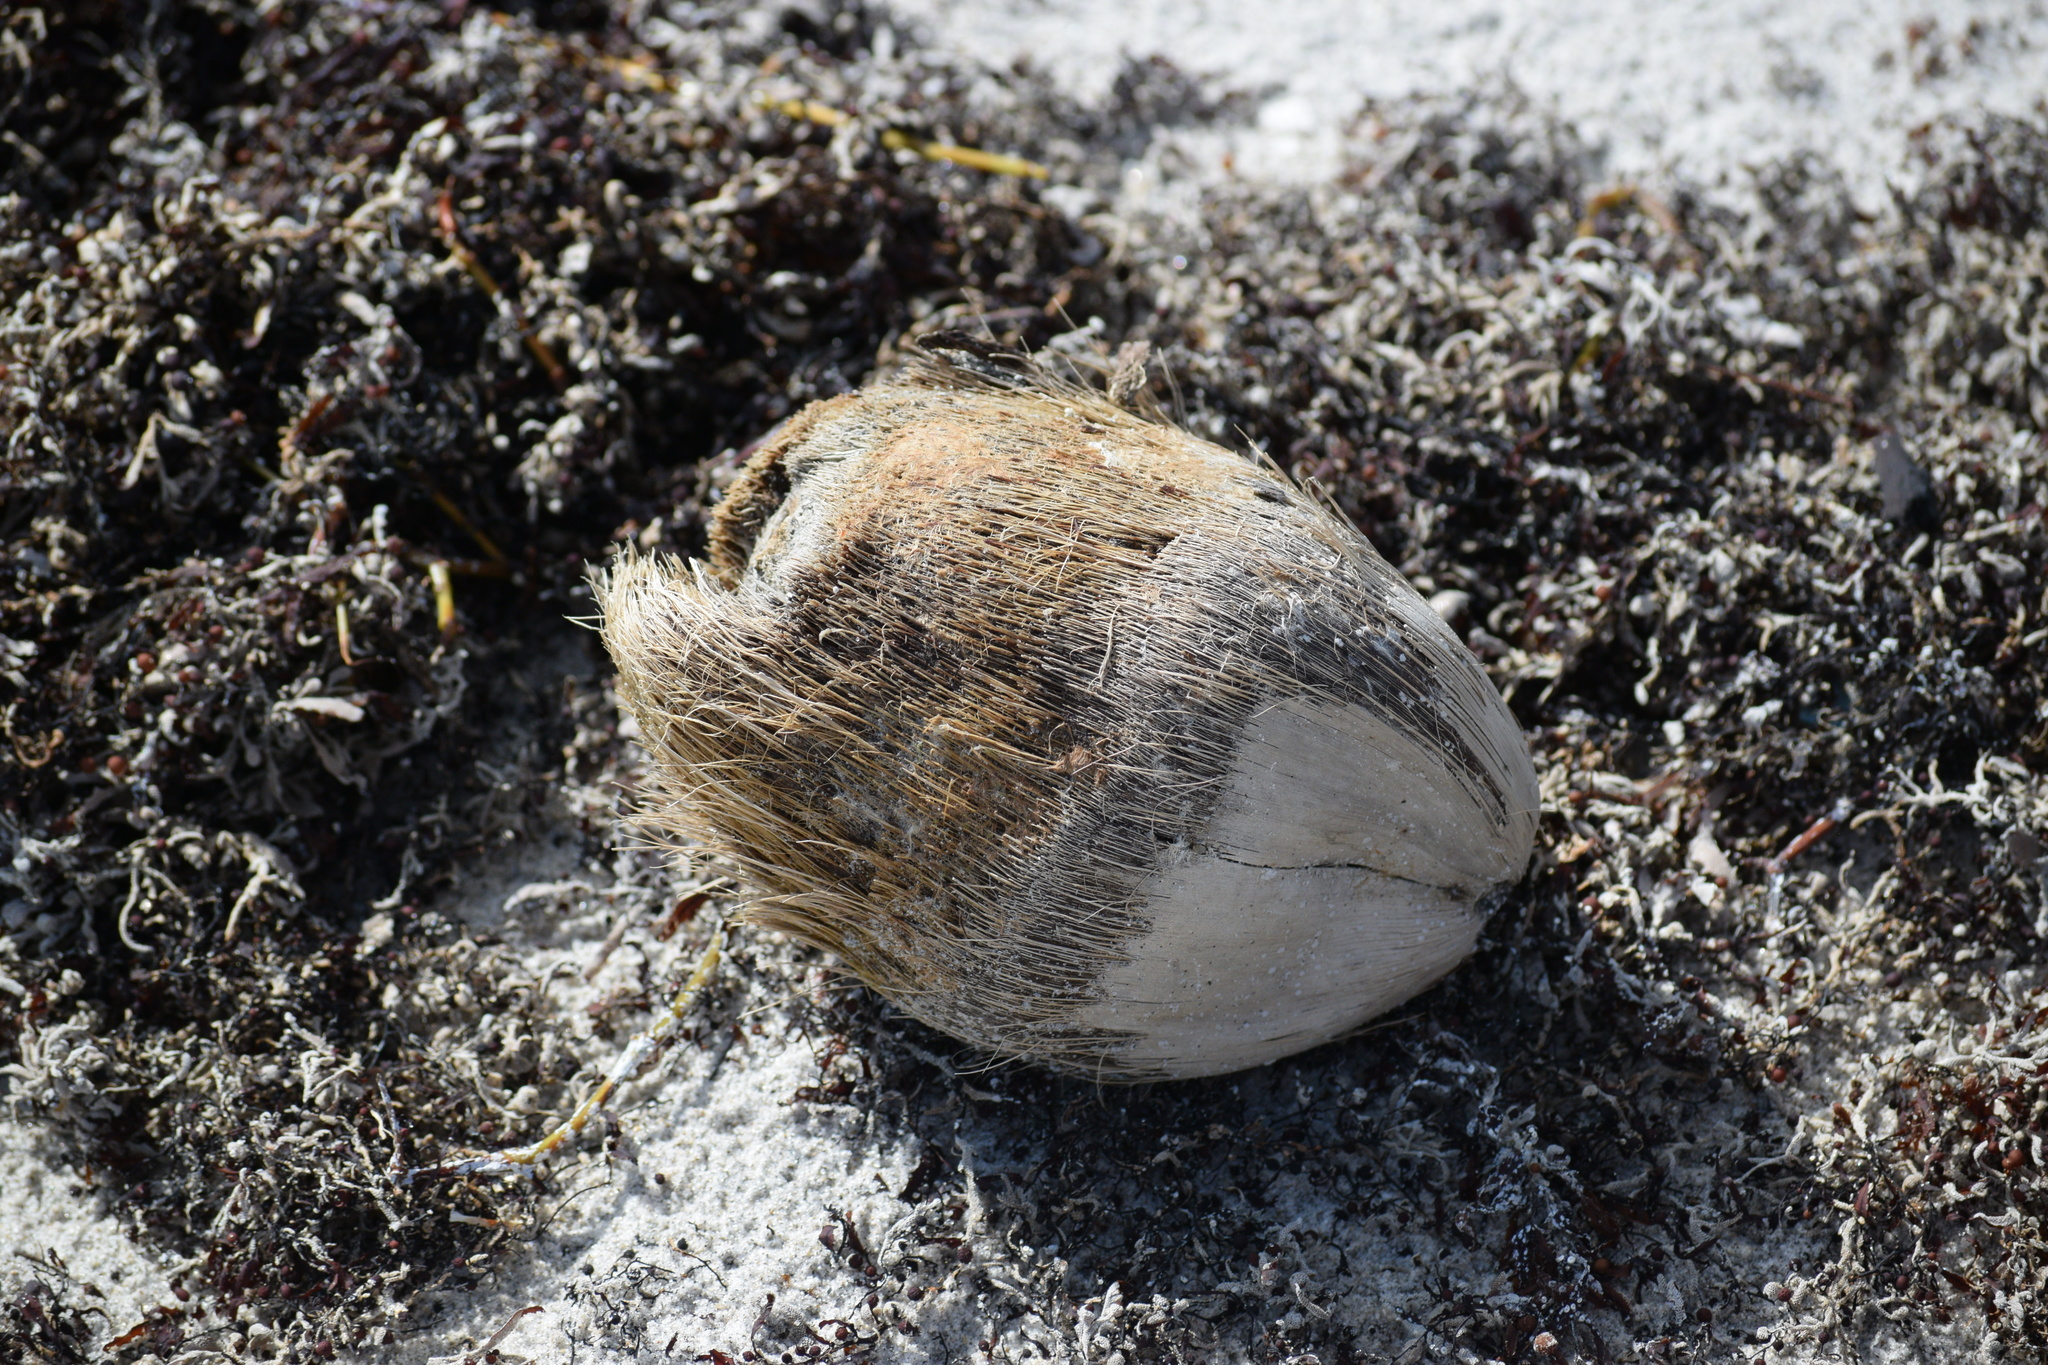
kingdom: Plantae
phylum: Tracheophyta
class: Liliopsida
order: Arecales
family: Arecaceae
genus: Cocos
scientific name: Cocos nucifera
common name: Coconut palm
